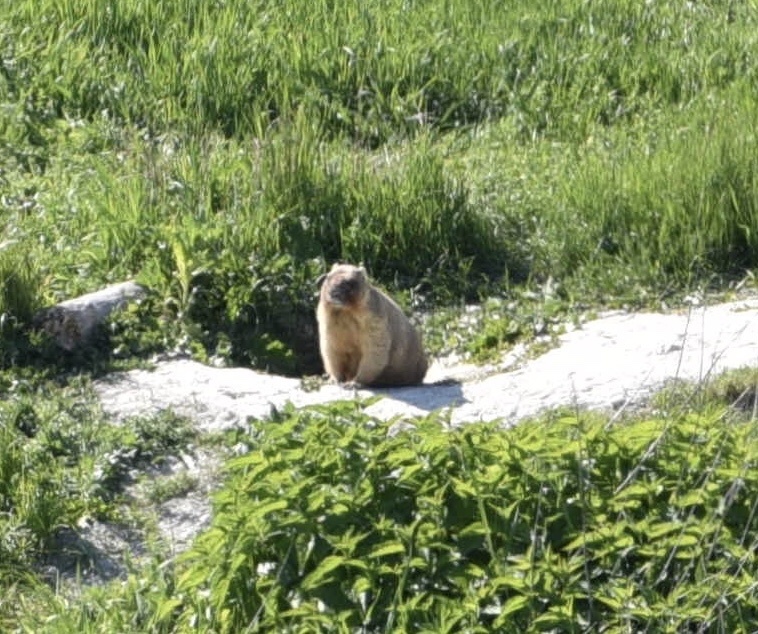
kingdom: Animalia
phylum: Chordata
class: Mammalia
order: Rodentia
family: Sciuridae
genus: Marmota
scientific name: Marmota bobak
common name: Bobak marmot
